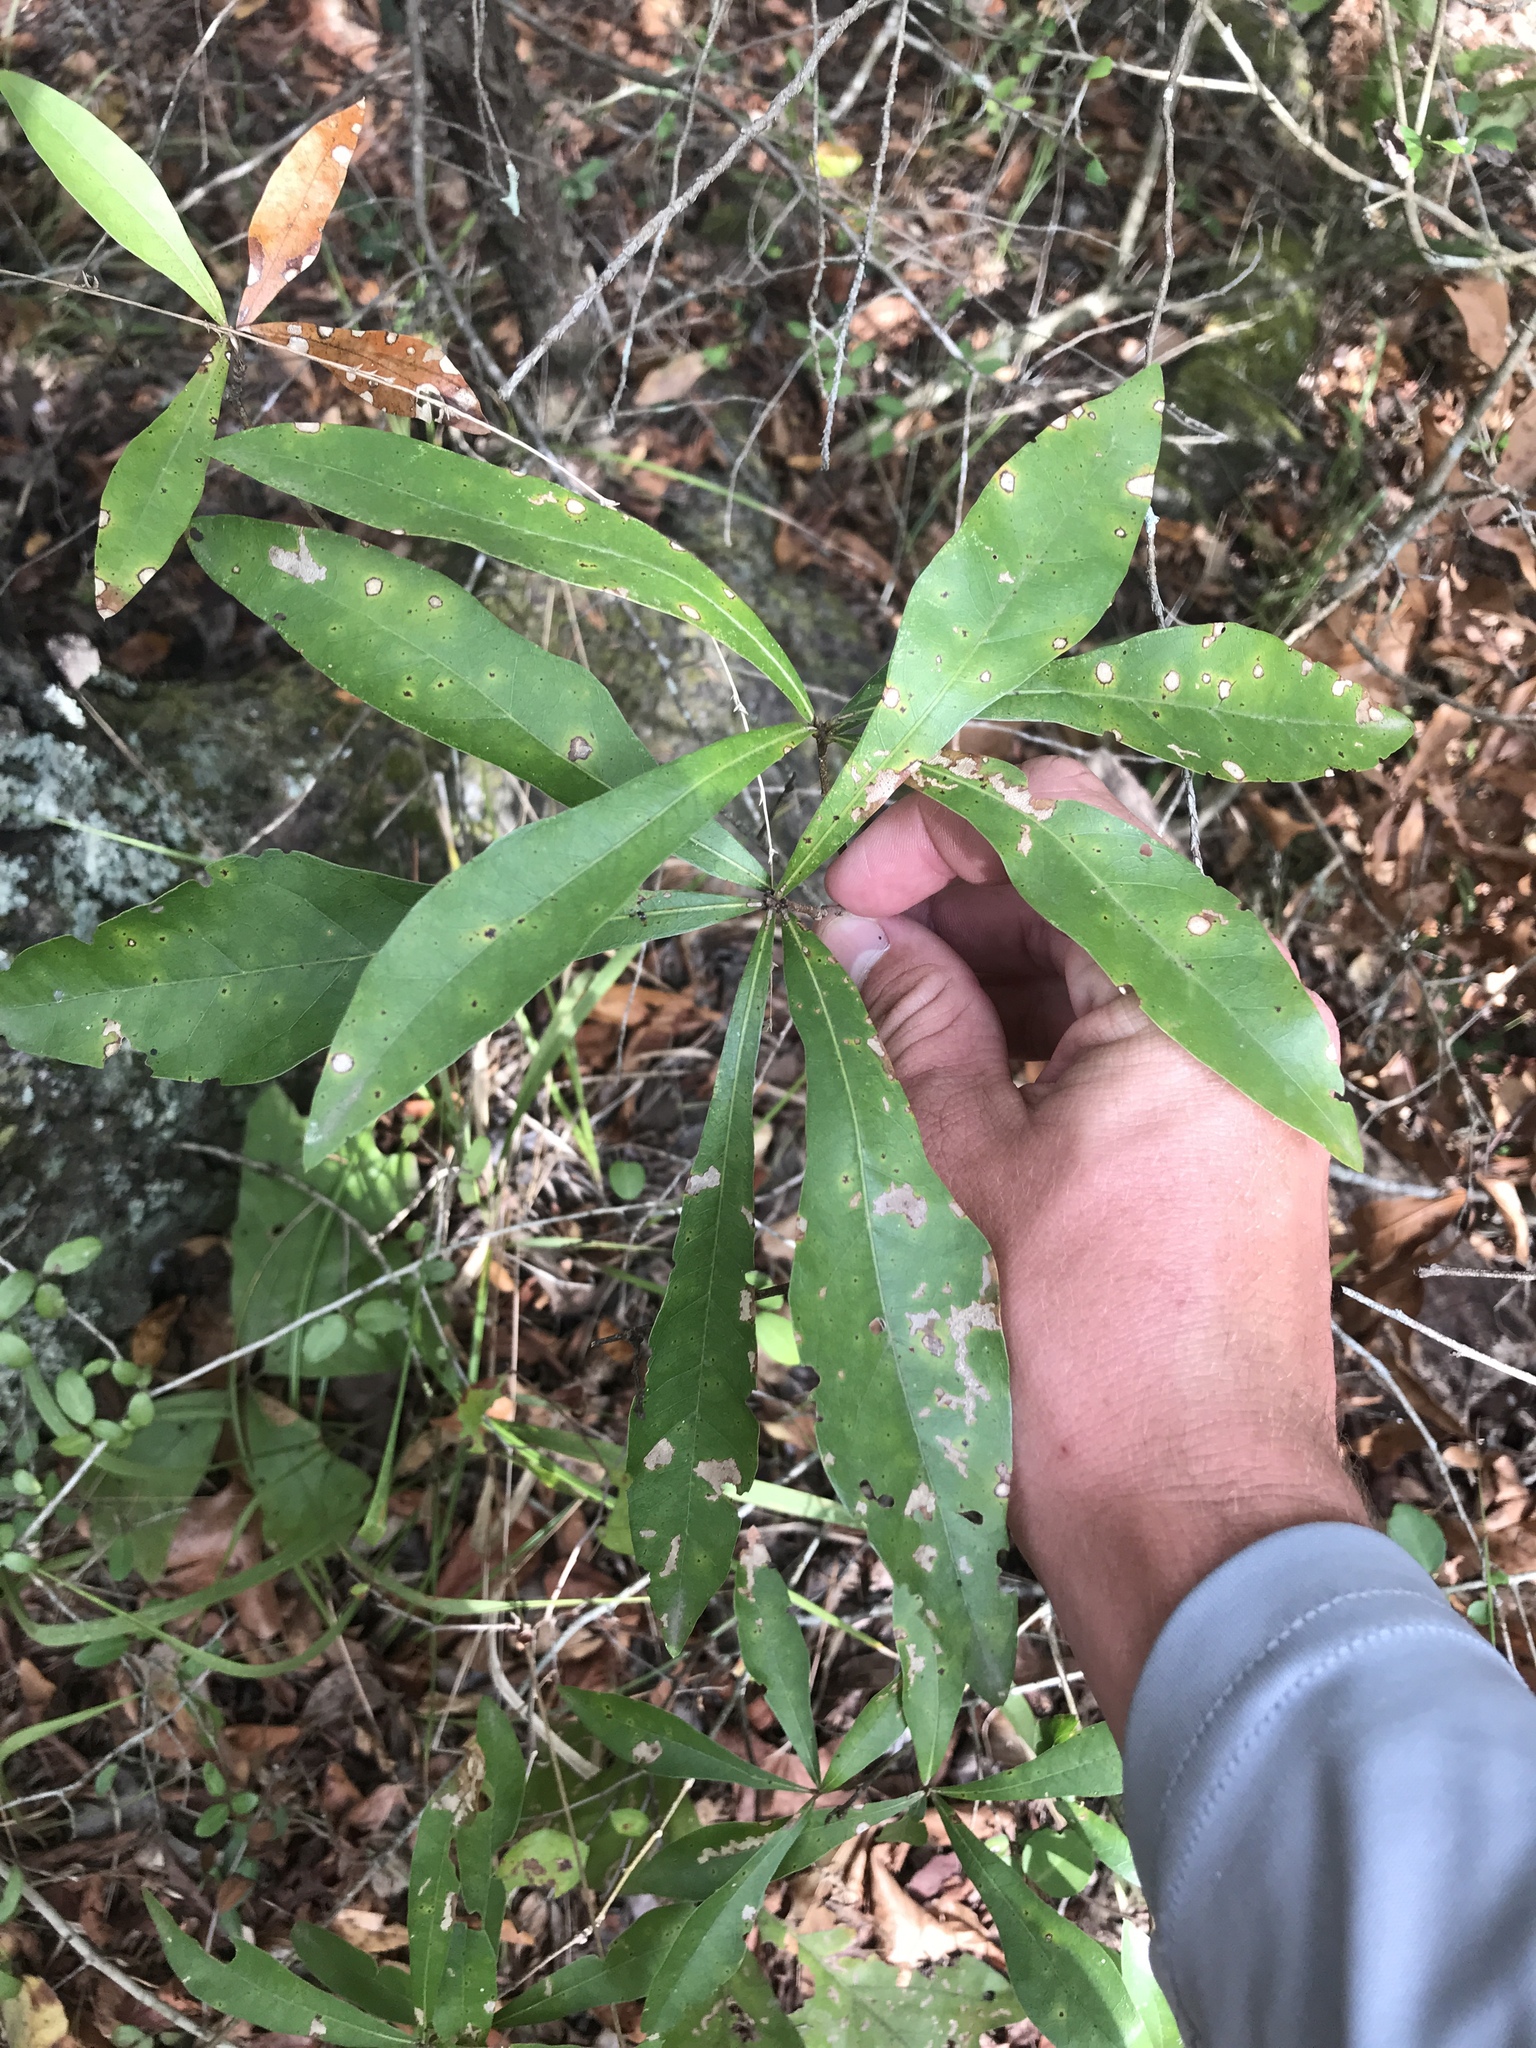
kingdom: Plantae
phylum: Tracheophyta
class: Magnoliopsida
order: Fagales
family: Fagaceae
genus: Quercus
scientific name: Quercus laurifolia
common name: Swamp laurel oak
